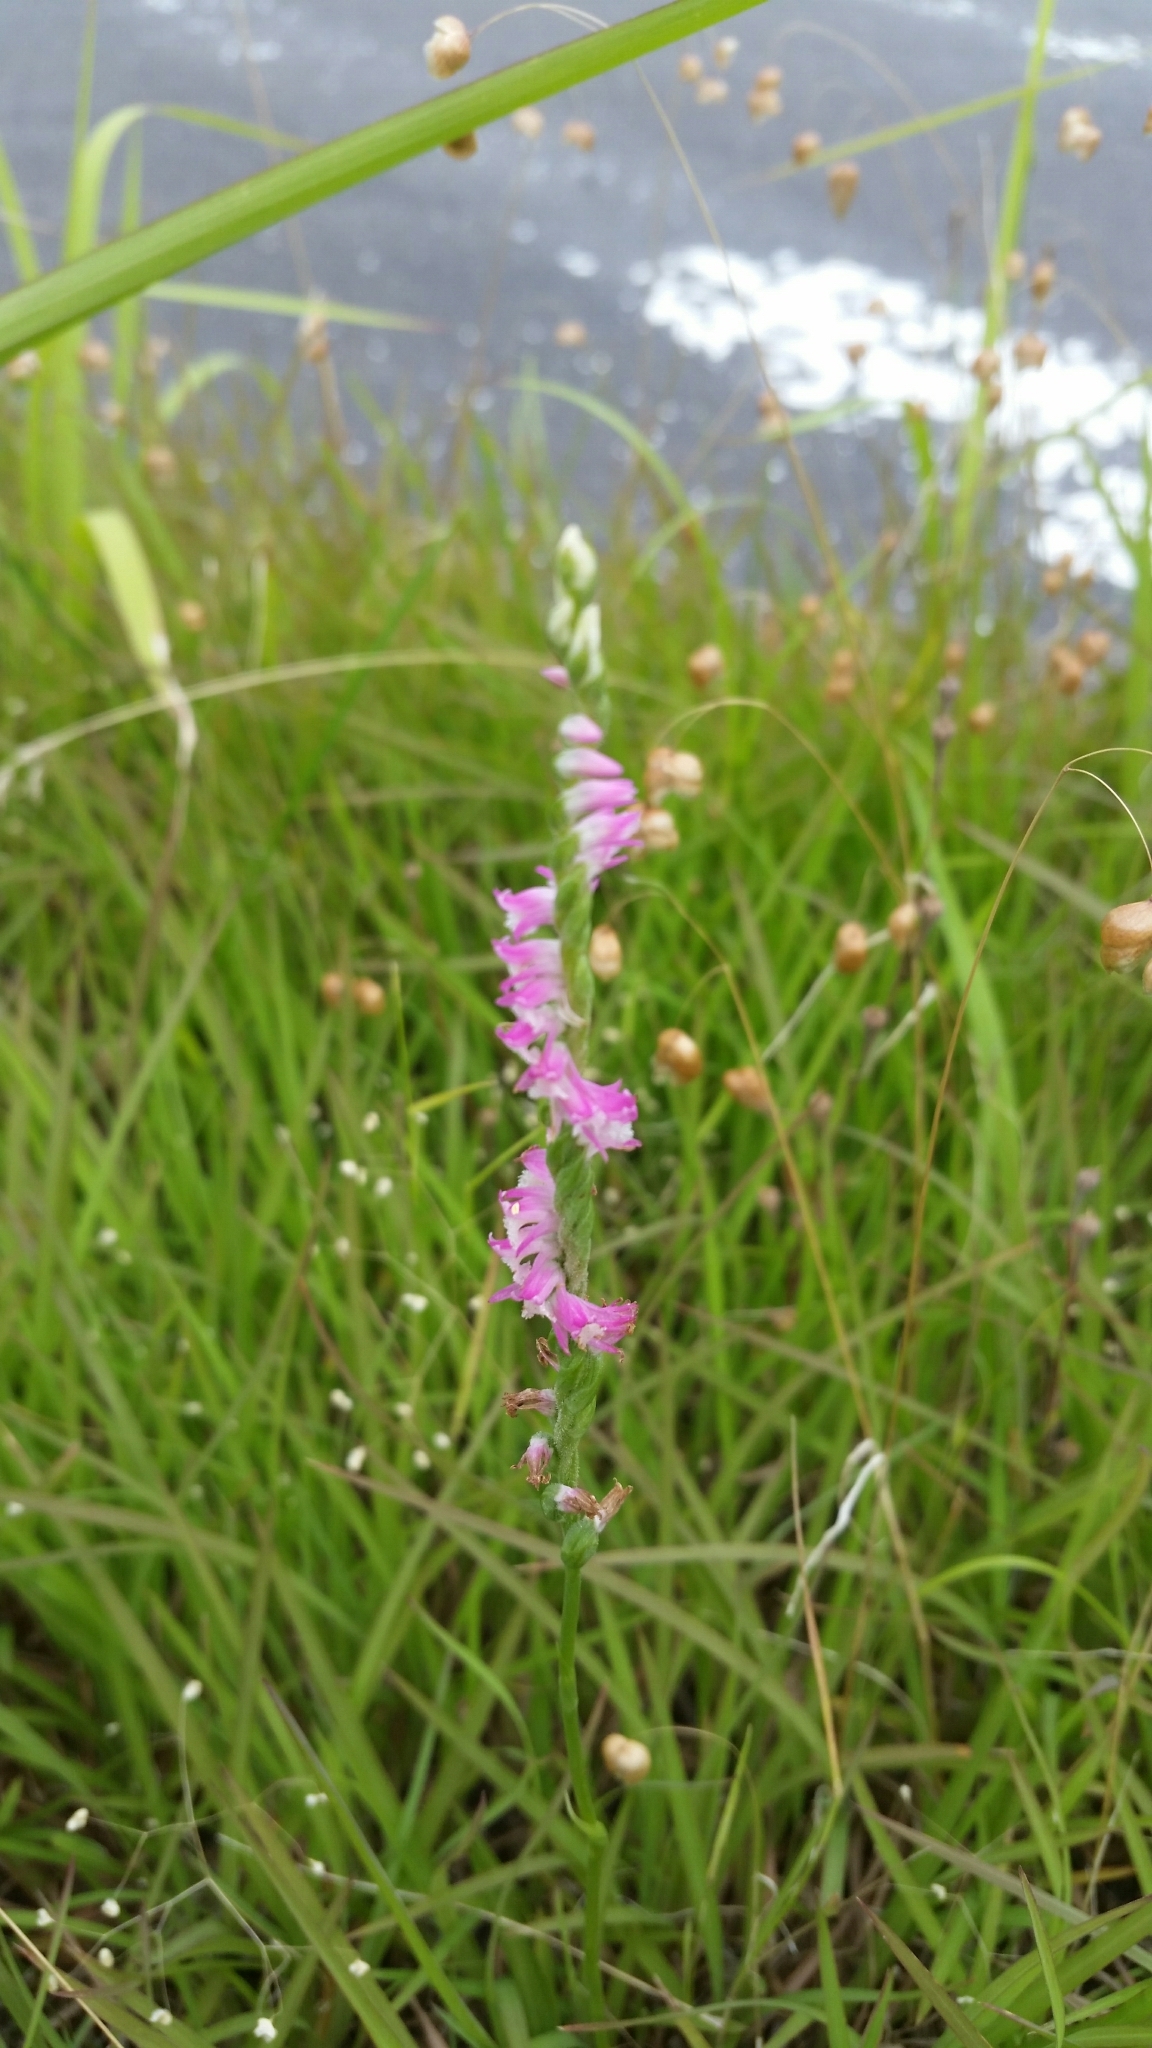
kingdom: Plantae
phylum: Tracheophyta
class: Liliopsida
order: Asparagales
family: Orchidaceae
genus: Spiranthes
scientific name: Spiranthes australis
